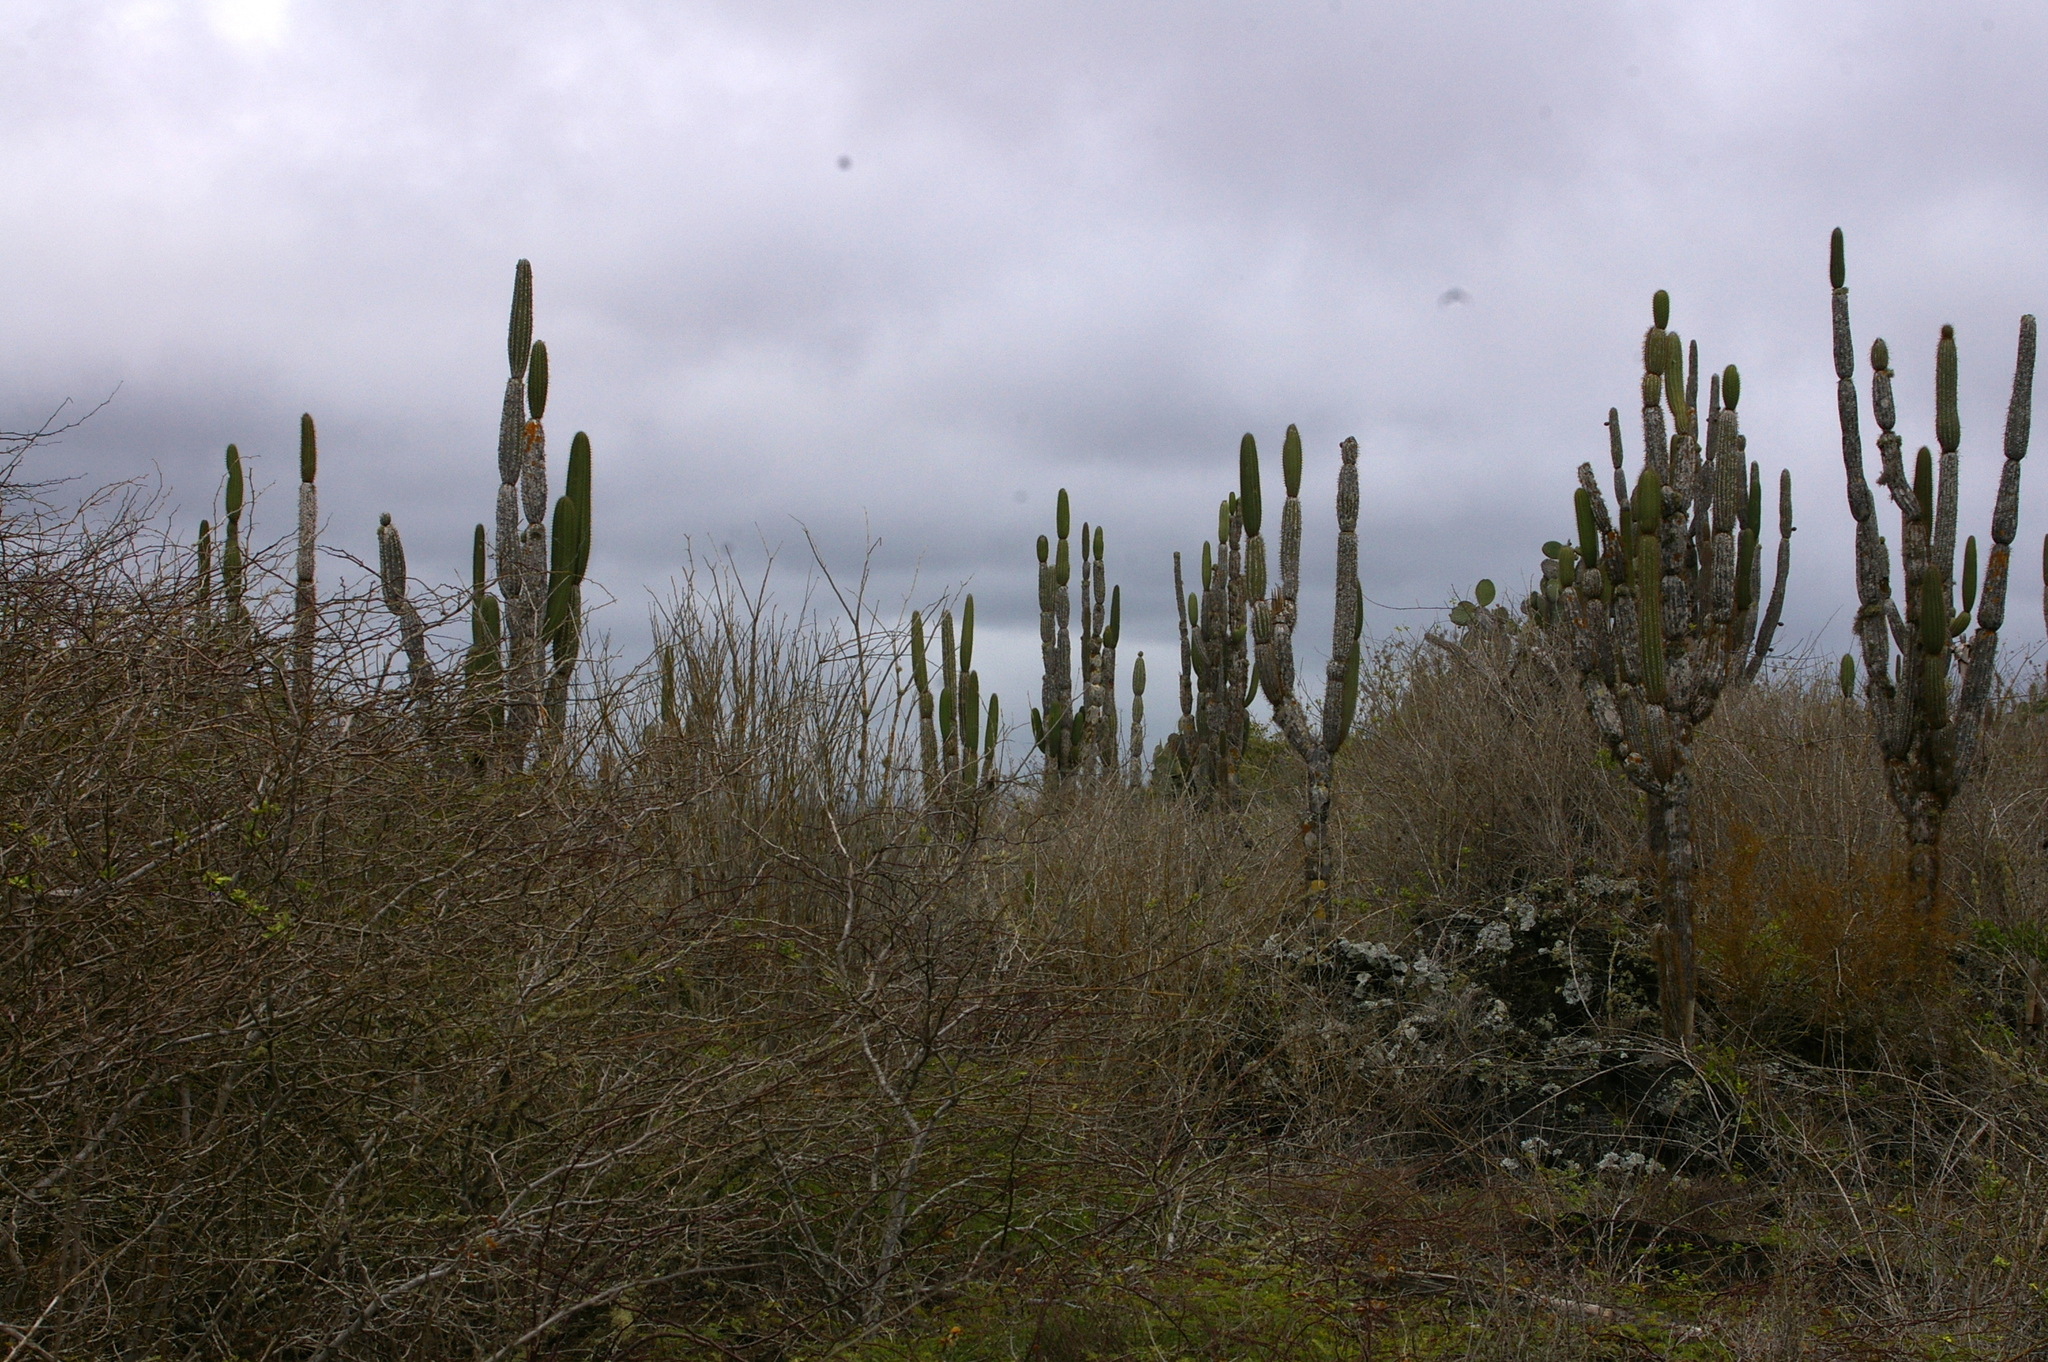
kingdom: Plantae
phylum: Tracheophyta
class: Magnoliopsida
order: Caryophyllales
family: Cactaceae
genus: Jasminocereus
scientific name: Jasminocereus thouarsii
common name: Candelabra cactus
